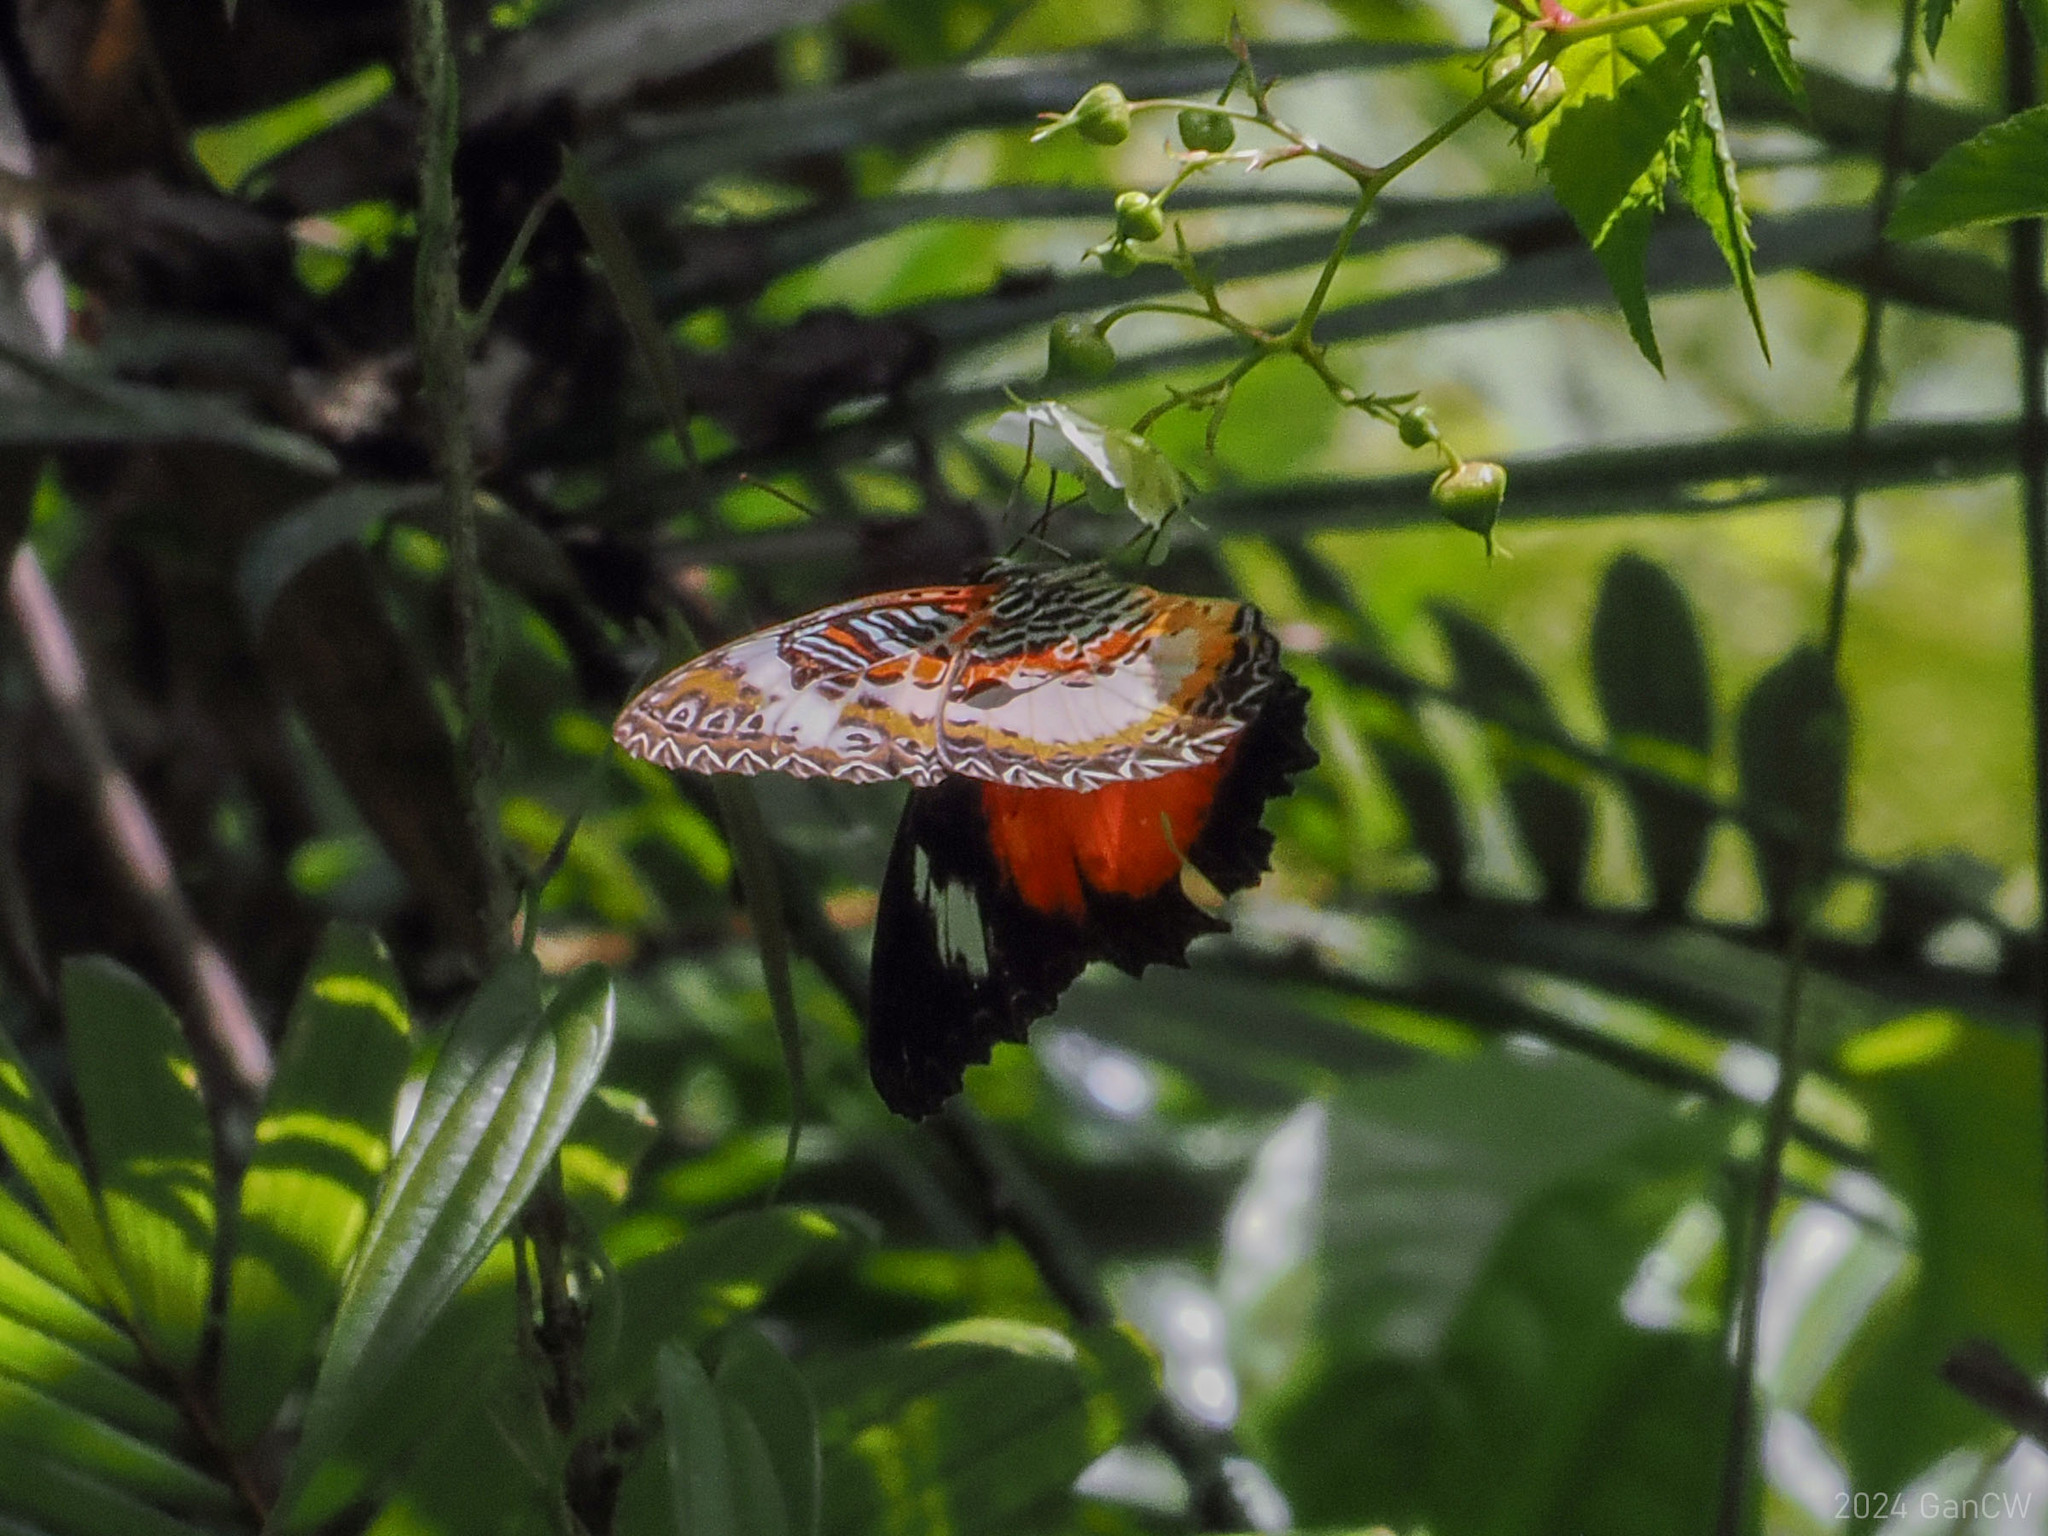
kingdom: Animalia
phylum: Arthropoda
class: Insecta
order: Lepidoptera
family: Nymphalidae
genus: Cethosia
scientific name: Cethosia luzonica
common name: Luzon lacewing
